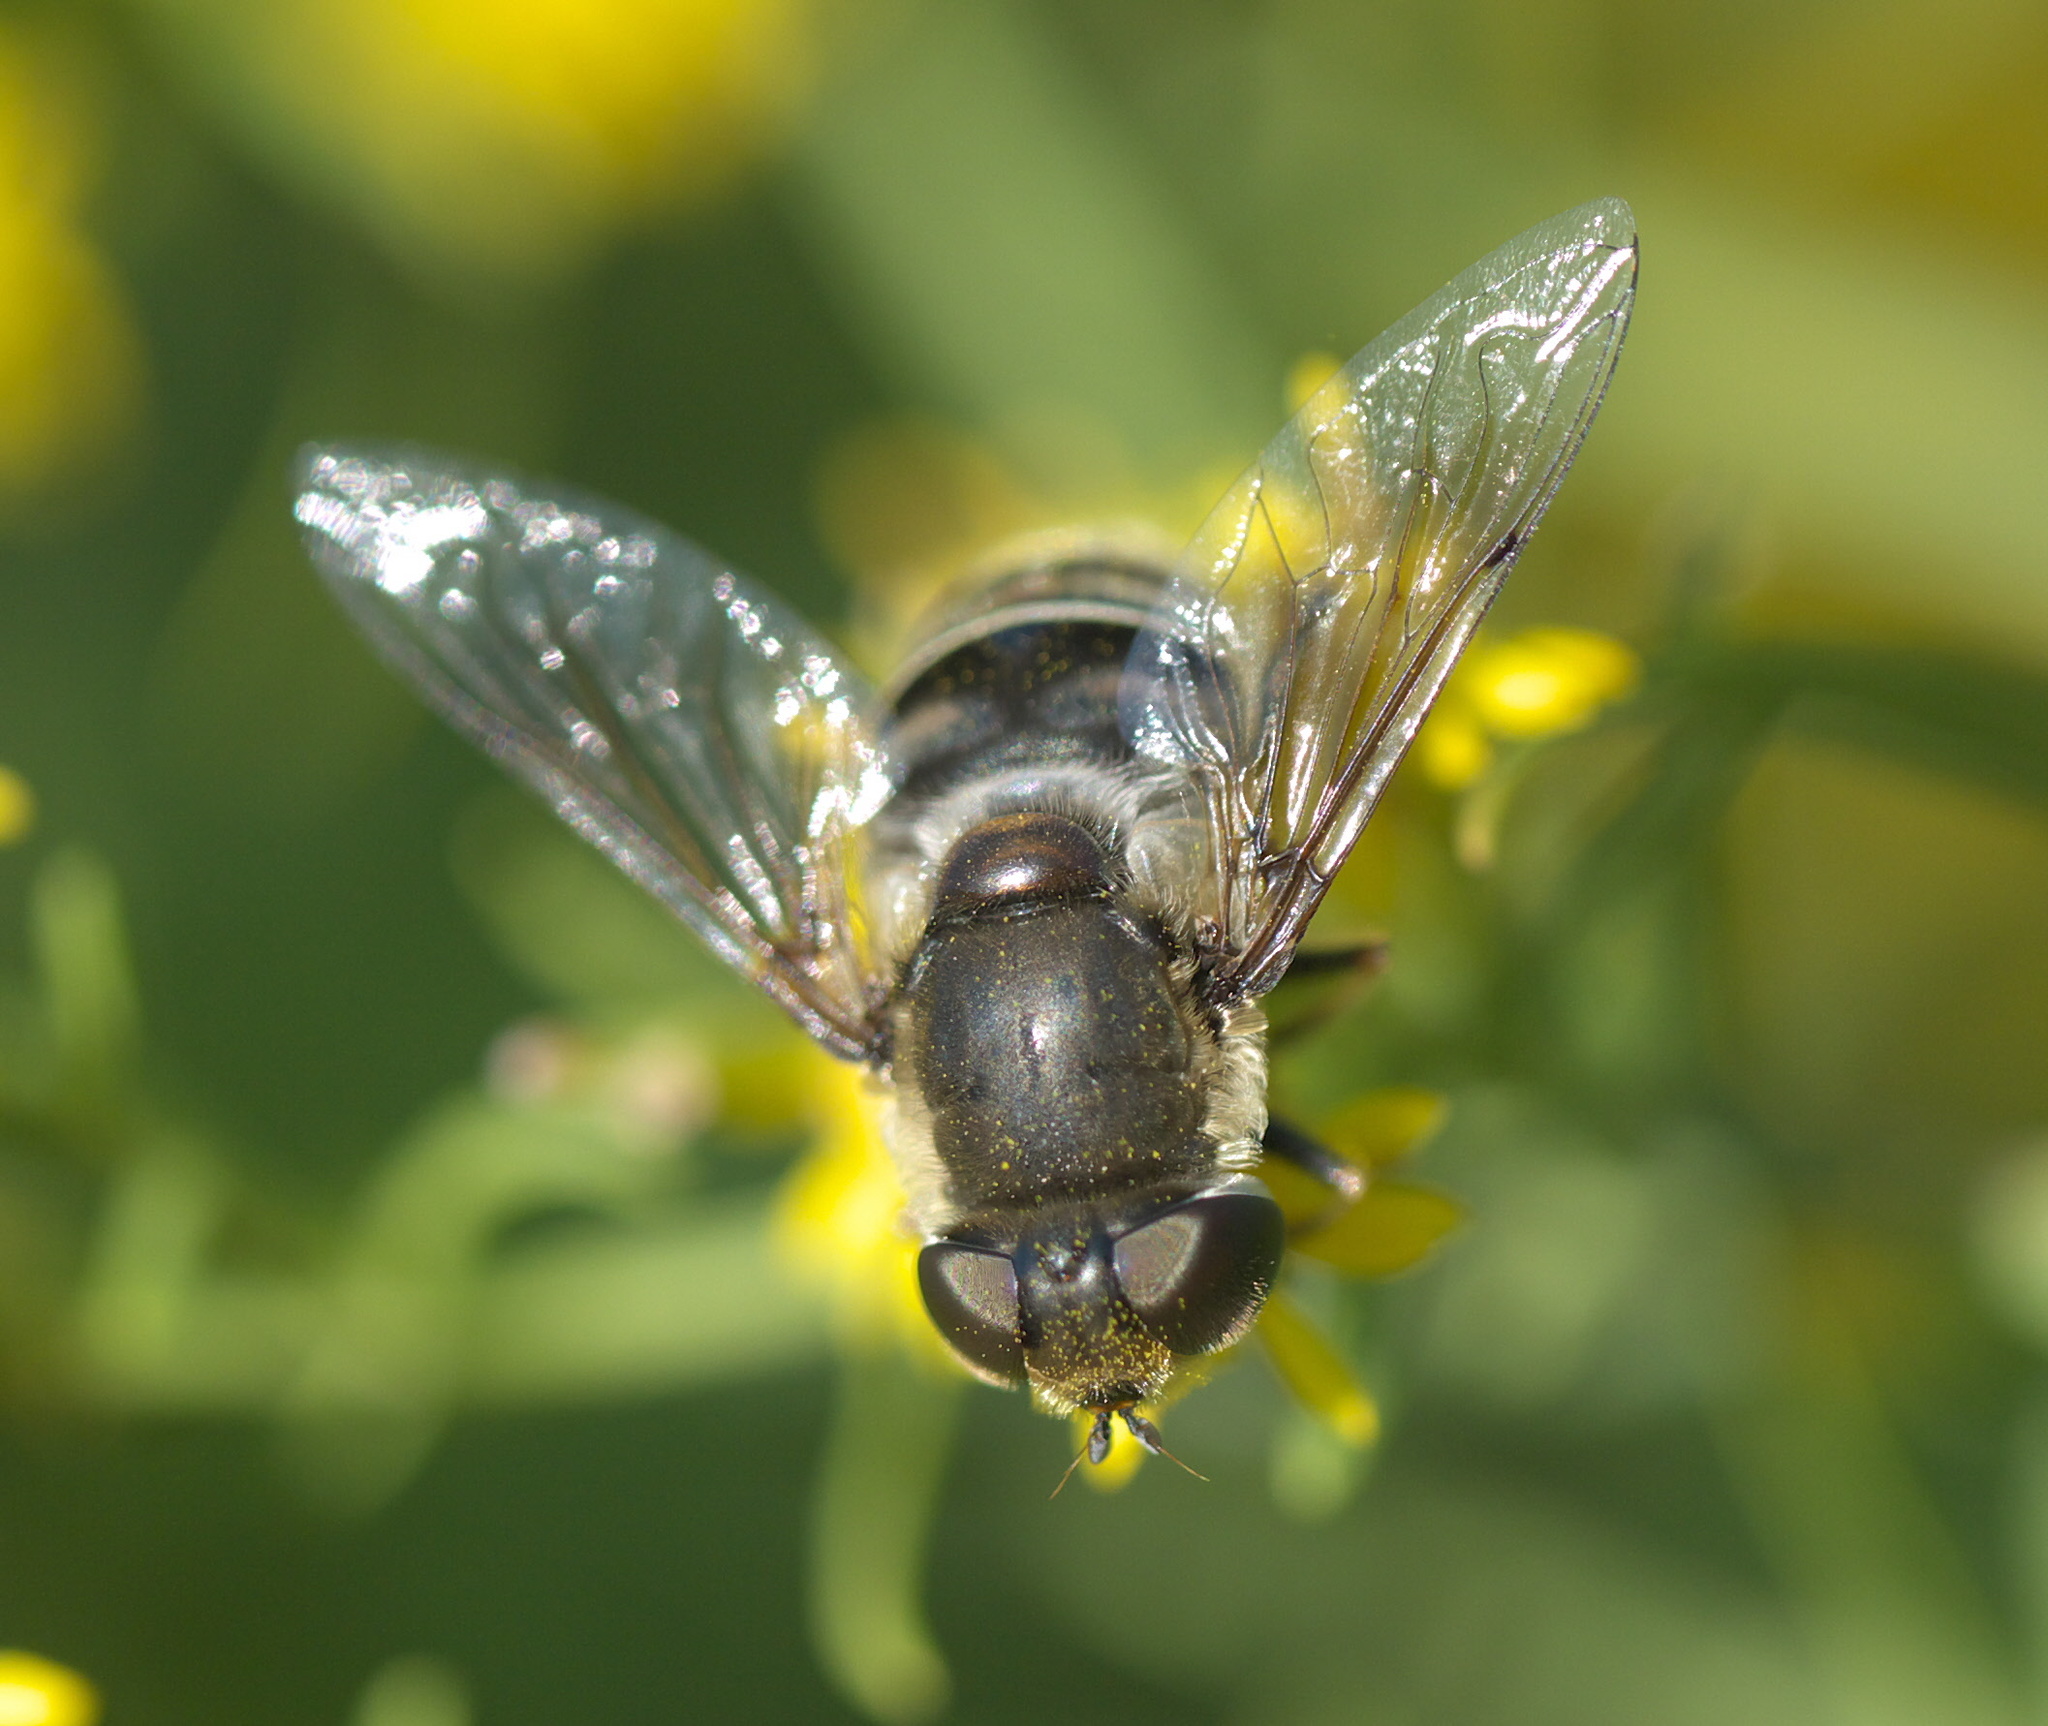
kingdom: Animalia
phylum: Arthropoda
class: Insecta
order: Diptera
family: Syrphidae
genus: Eristalis
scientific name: Eristalis dimidiata
